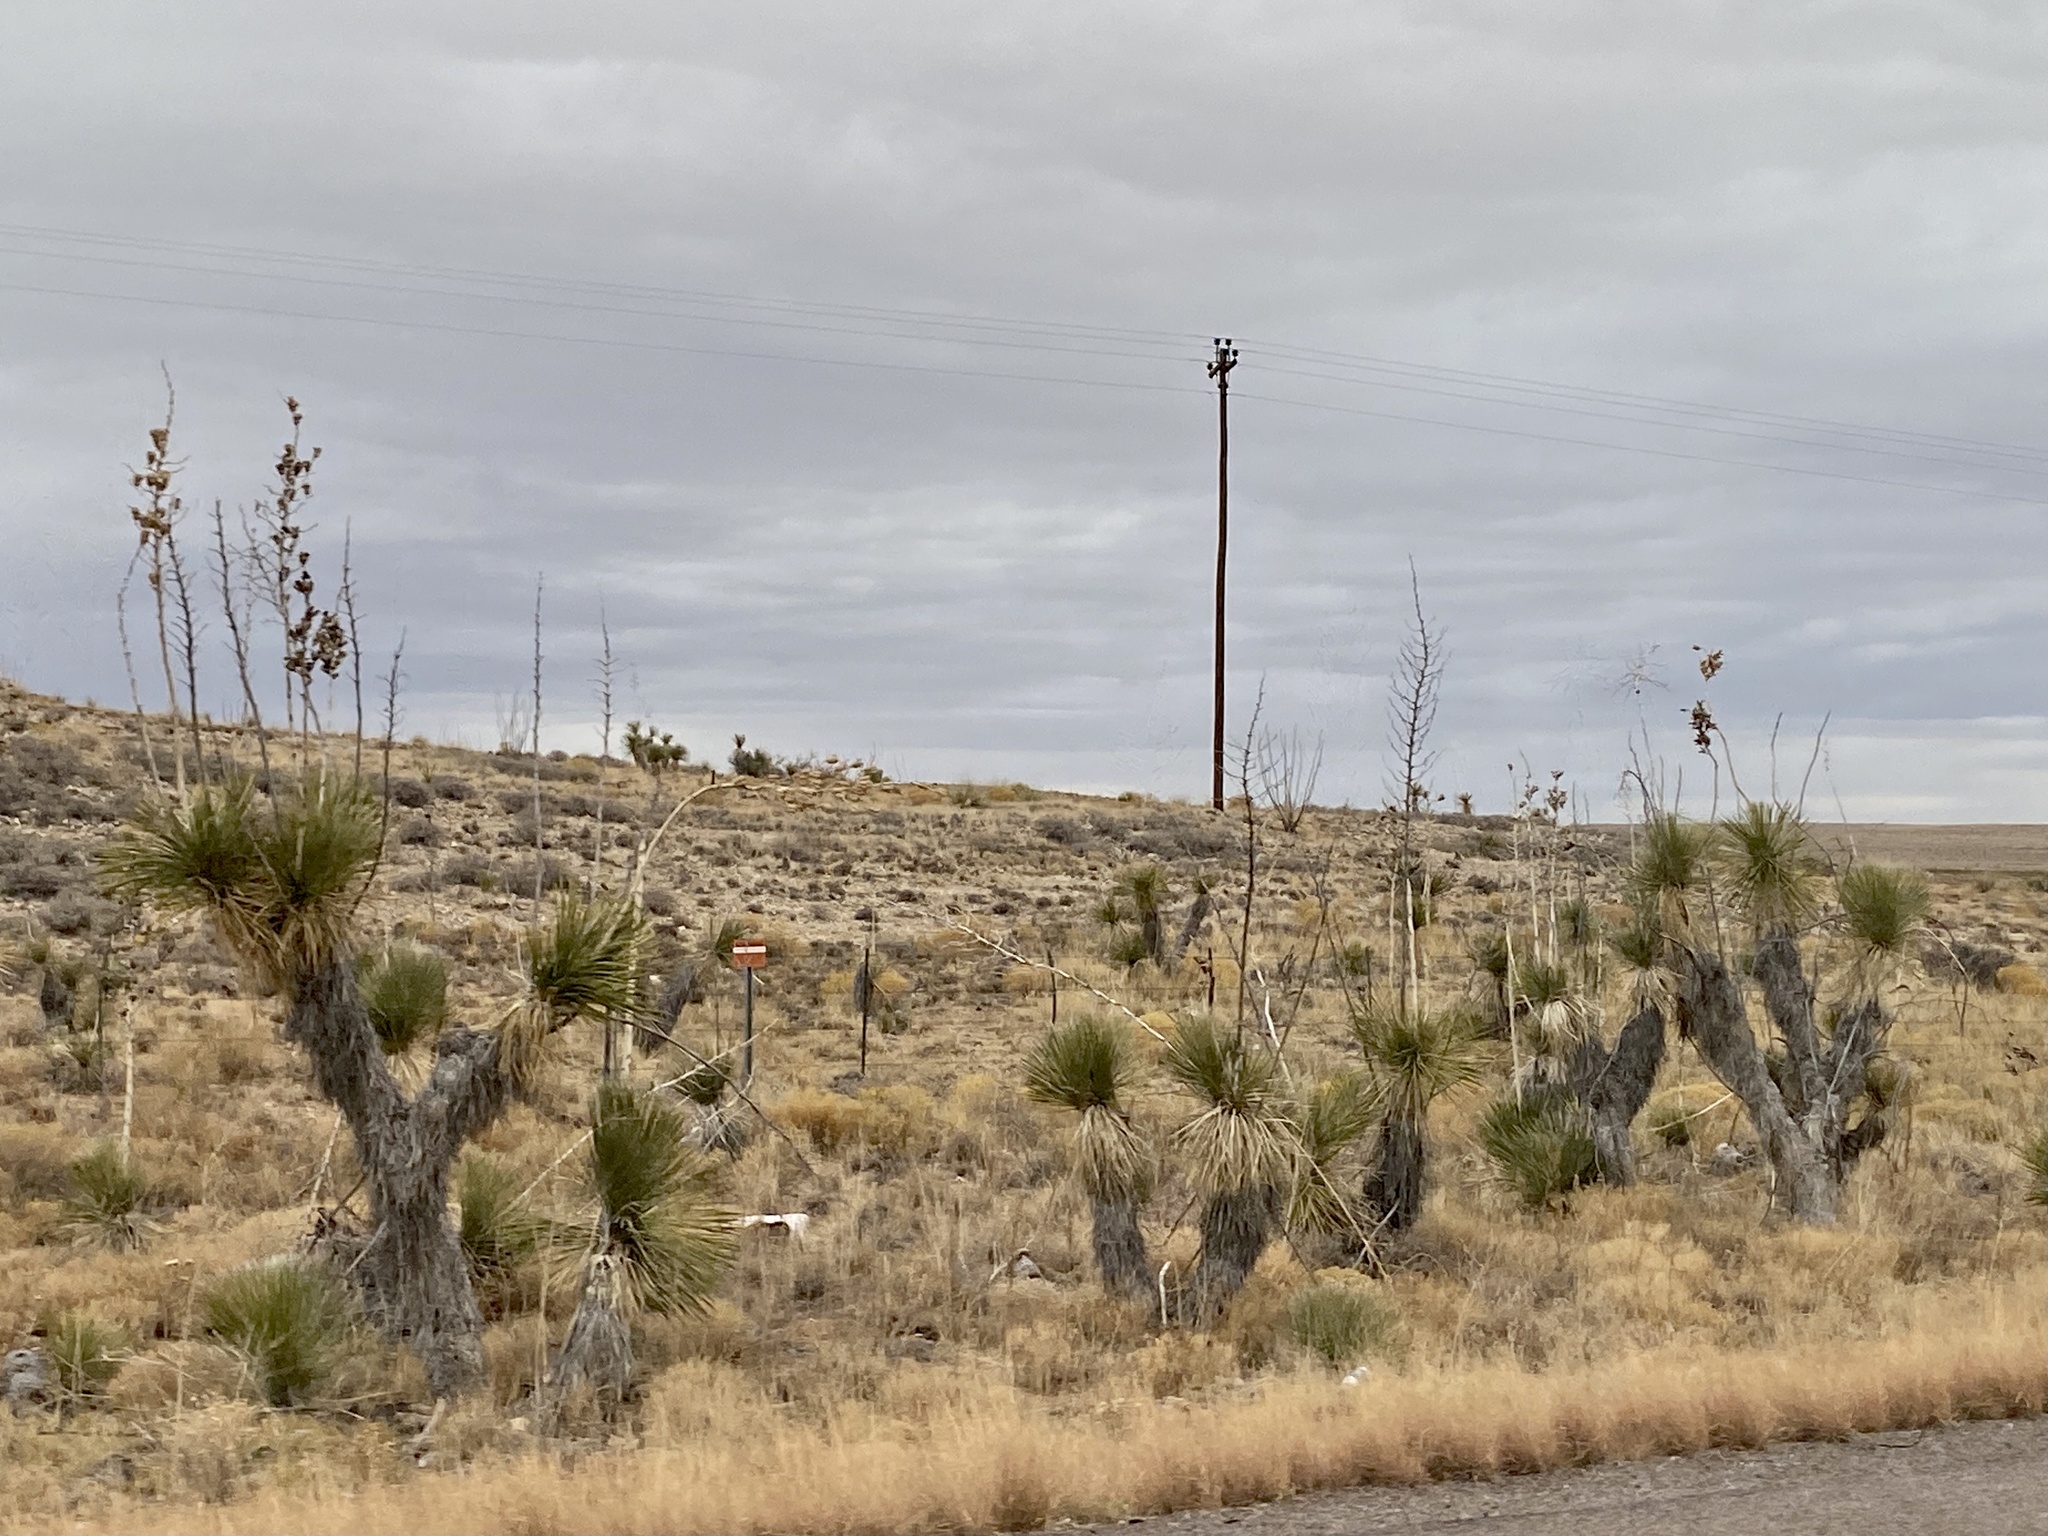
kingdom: Plantae
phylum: Tracheophyta
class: Liliopsida
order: Asparagales
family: Asparagaceae
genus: Yucca
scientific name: Yucca elata
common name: Palmella
